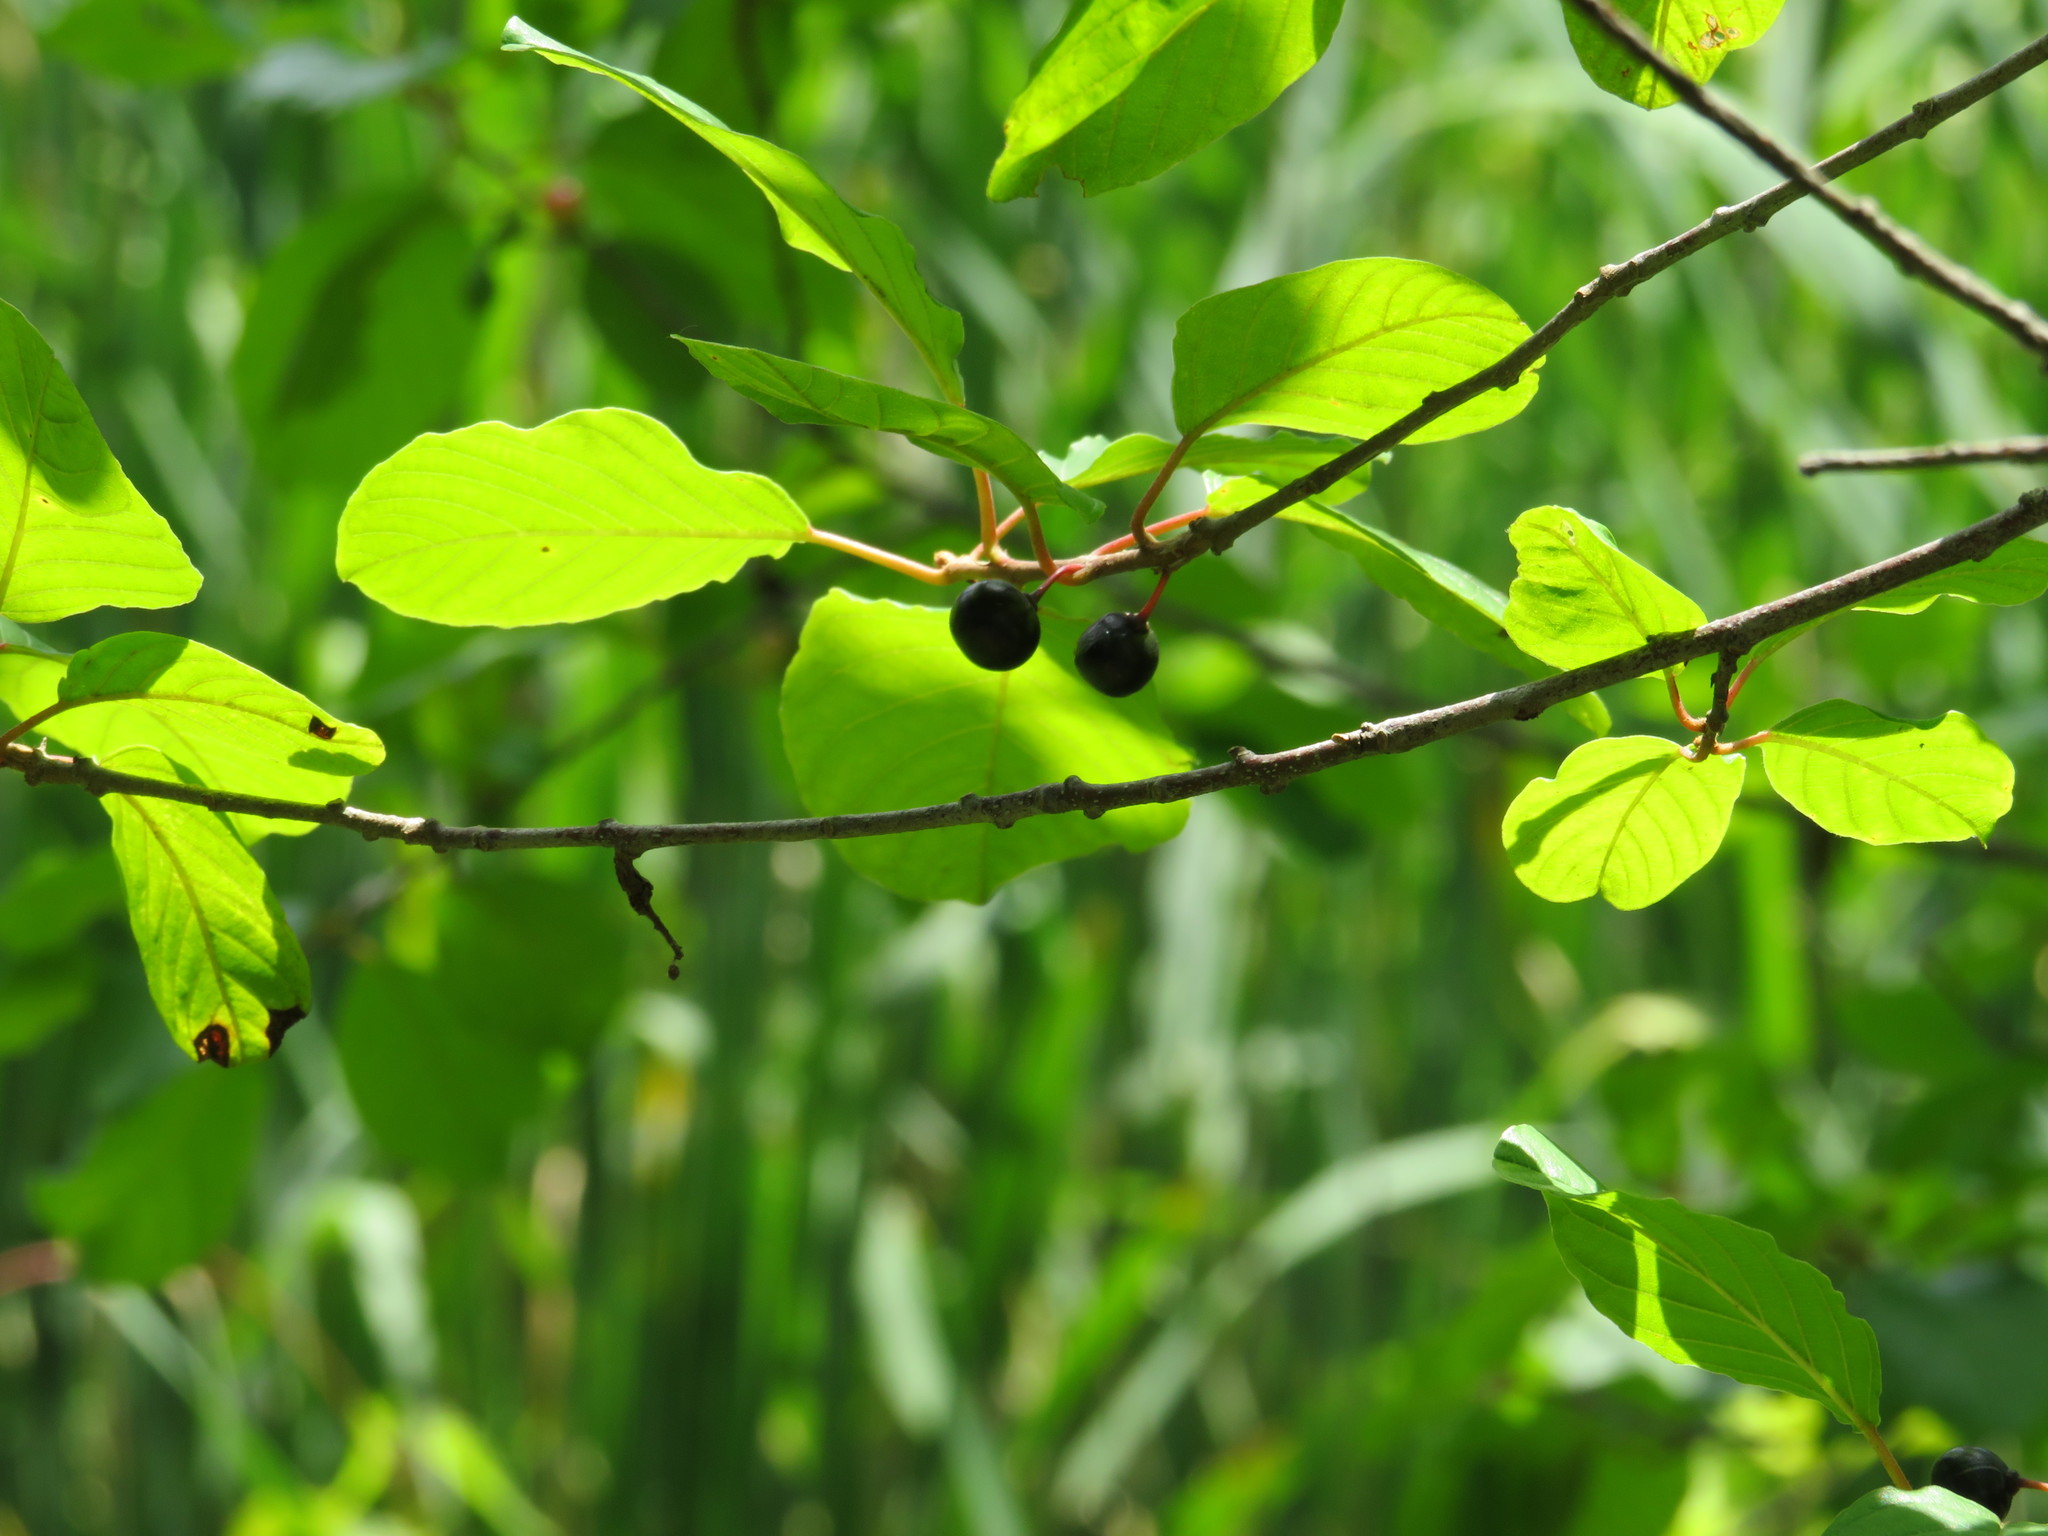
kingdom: Plantae
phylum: Tracheophyta
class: Magnoliopsida
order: Rosales
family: Rhamnaceae
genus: Frangula
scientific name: Frangula alnus
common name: Alder buckthorn
